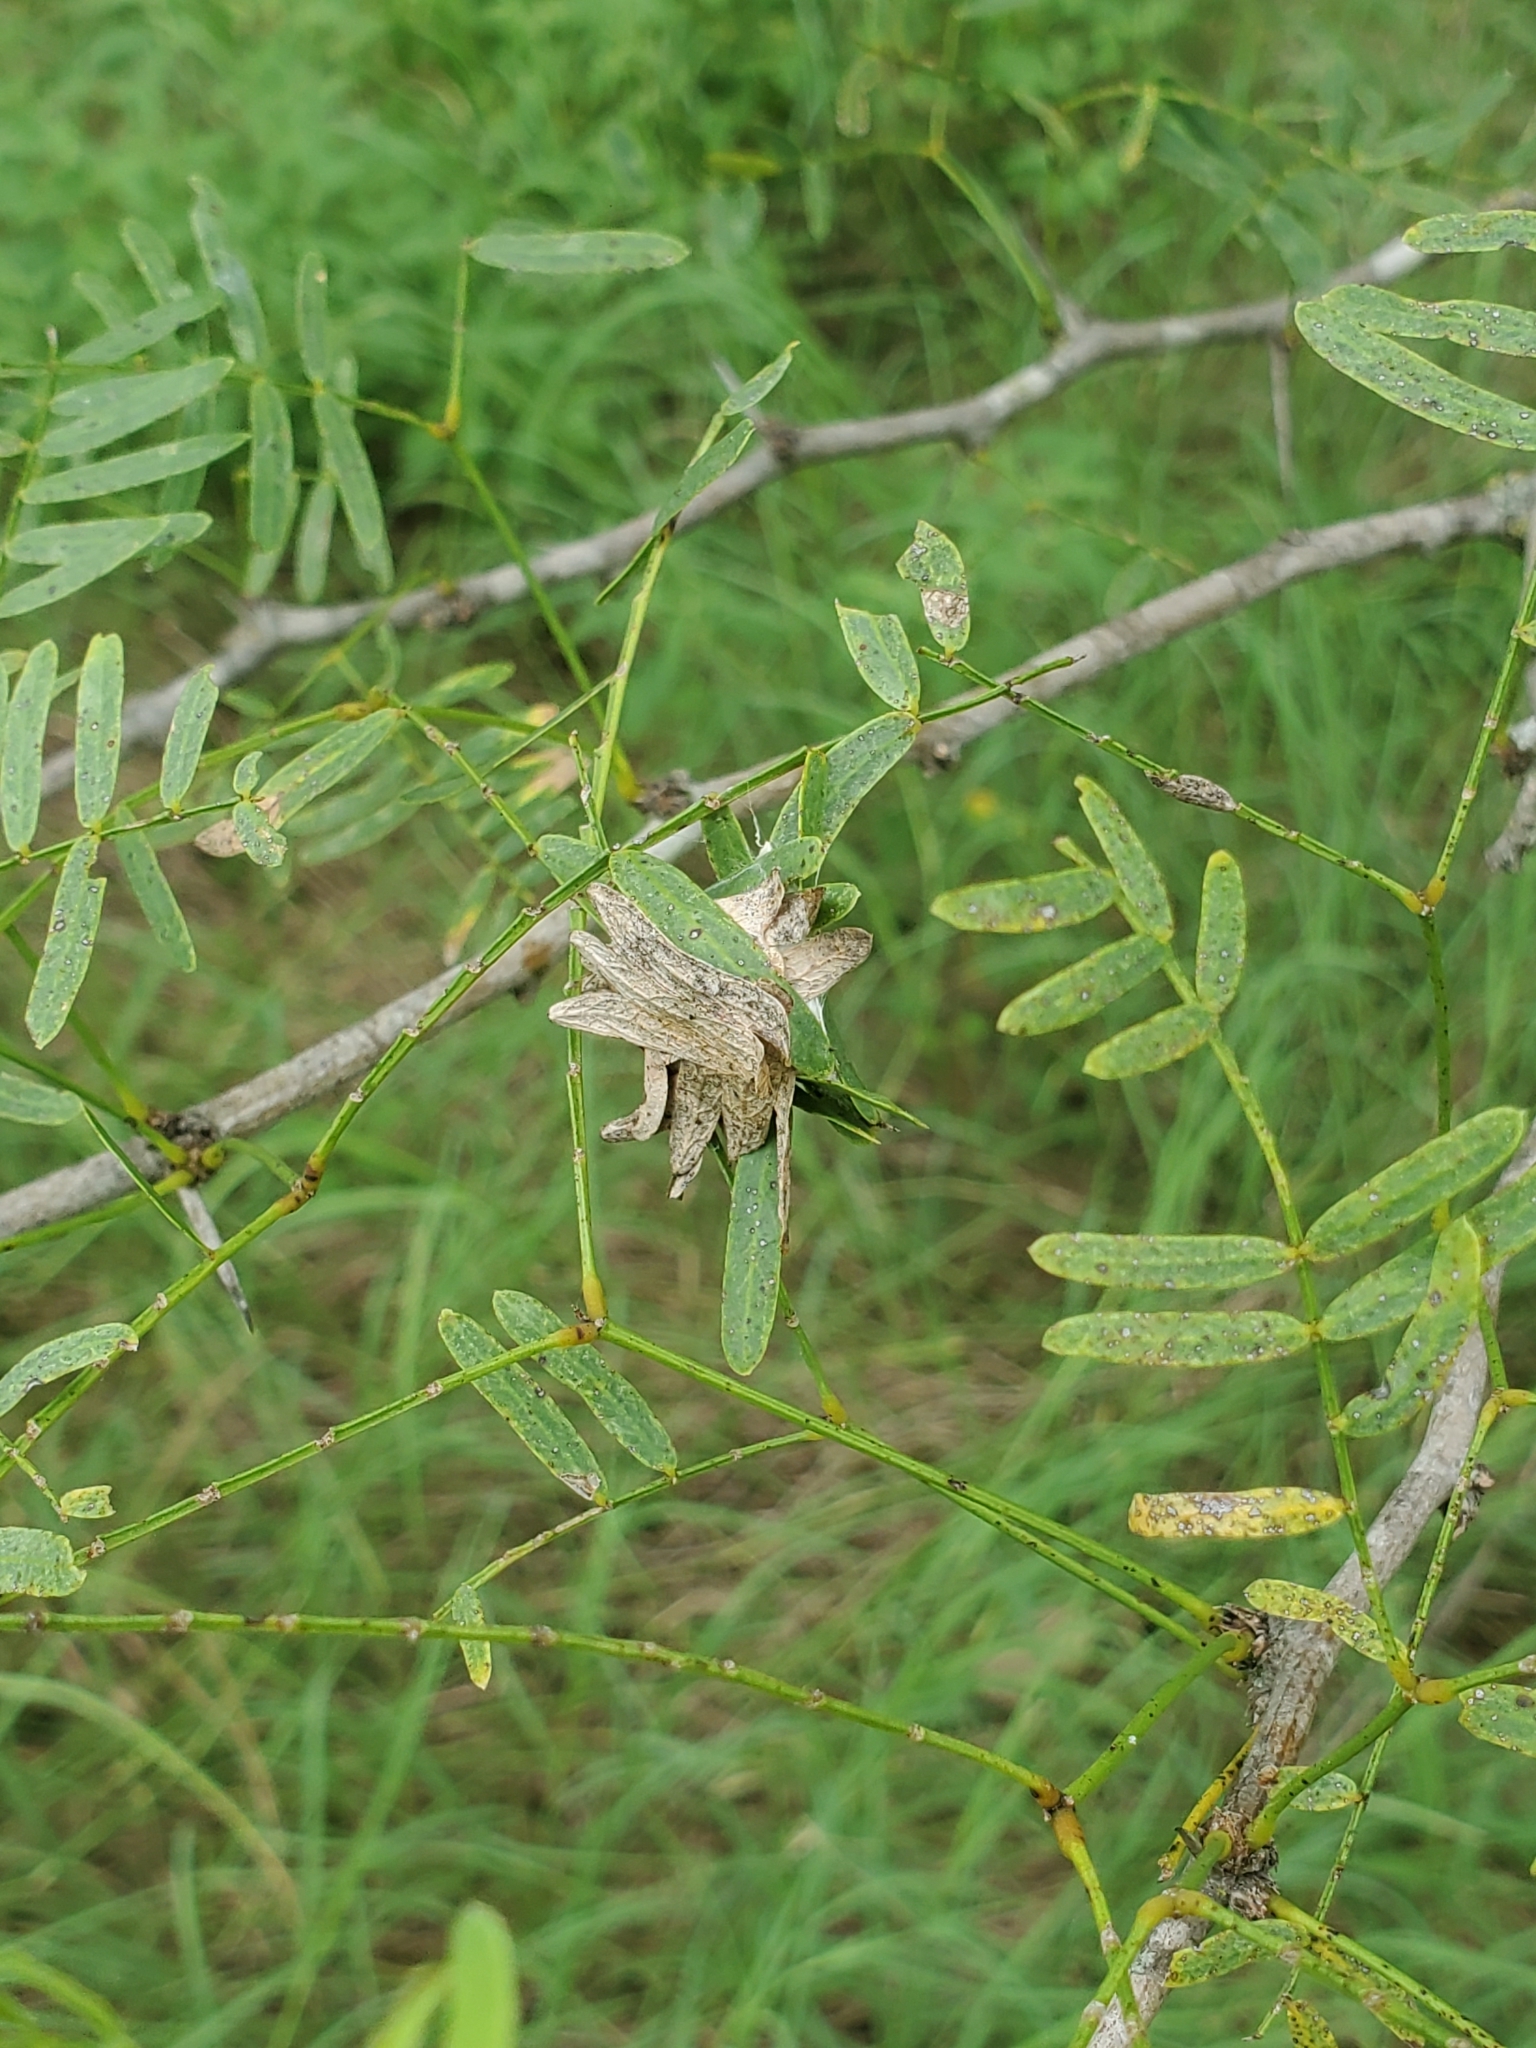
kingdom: Plantae
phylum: Tracheophyta
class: Magnoliopsida
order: Fabales
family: Fabaceae
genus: Prosopis
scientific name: Prosopis glandulosa
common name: Honey mesquite
